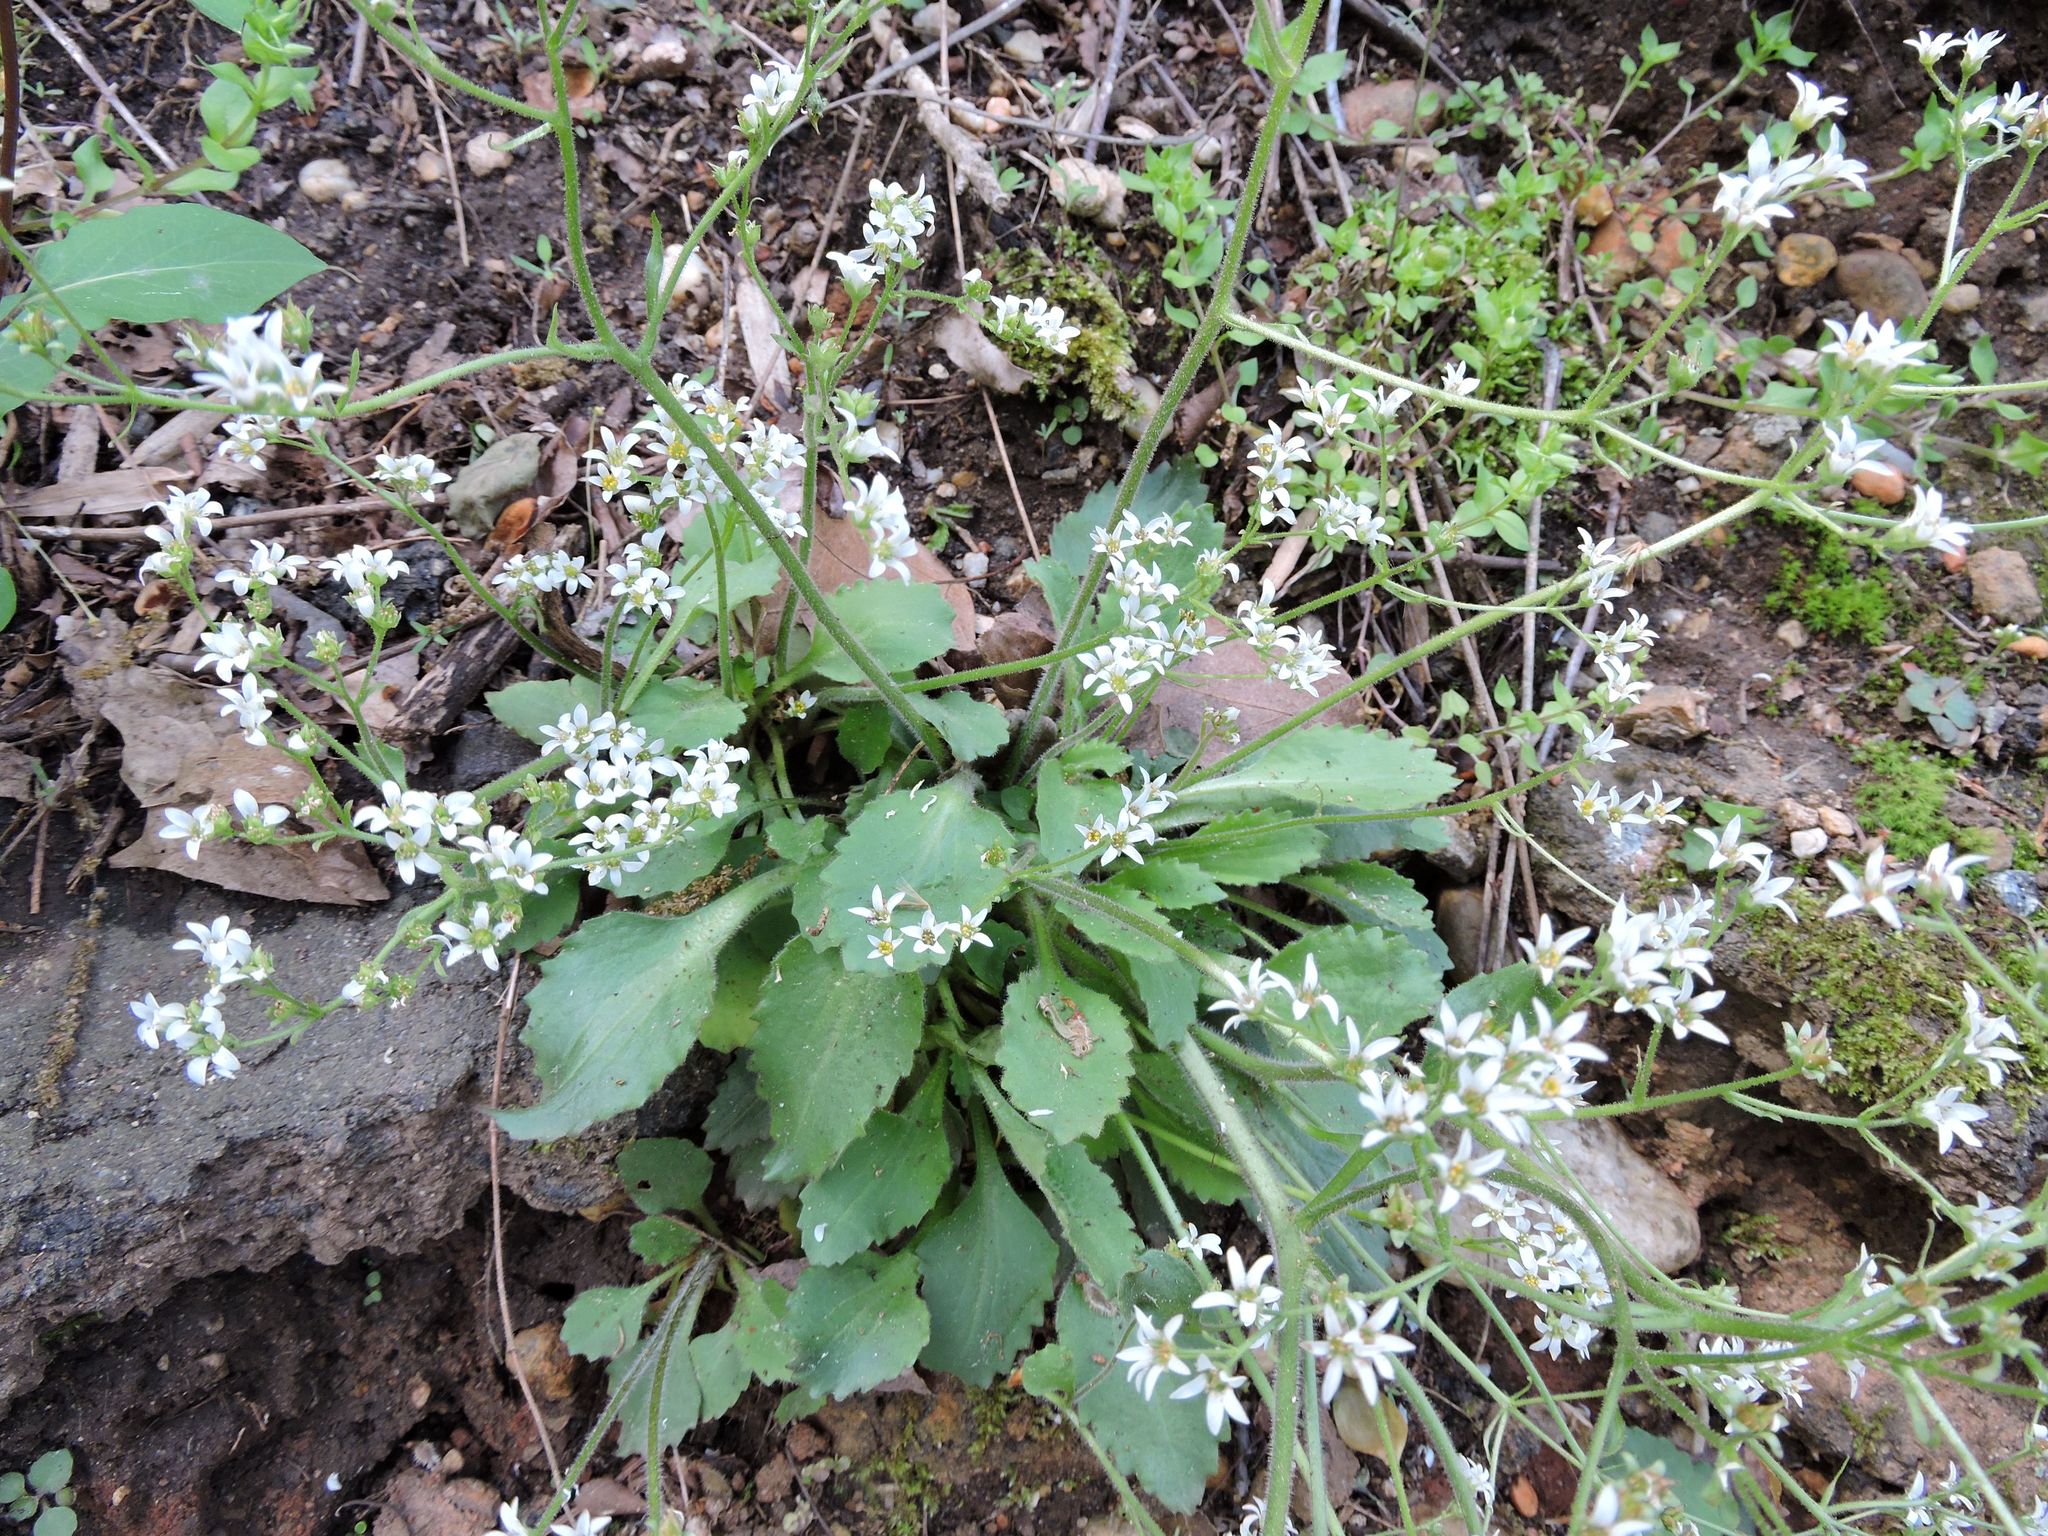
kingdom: Plantae
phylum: Tracheophyta
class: Magnoliopsida
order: Saxifragales
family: Saxifragaceae
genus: Micranthes
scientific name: Micranthes virginiensis
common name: Early saxifrage
